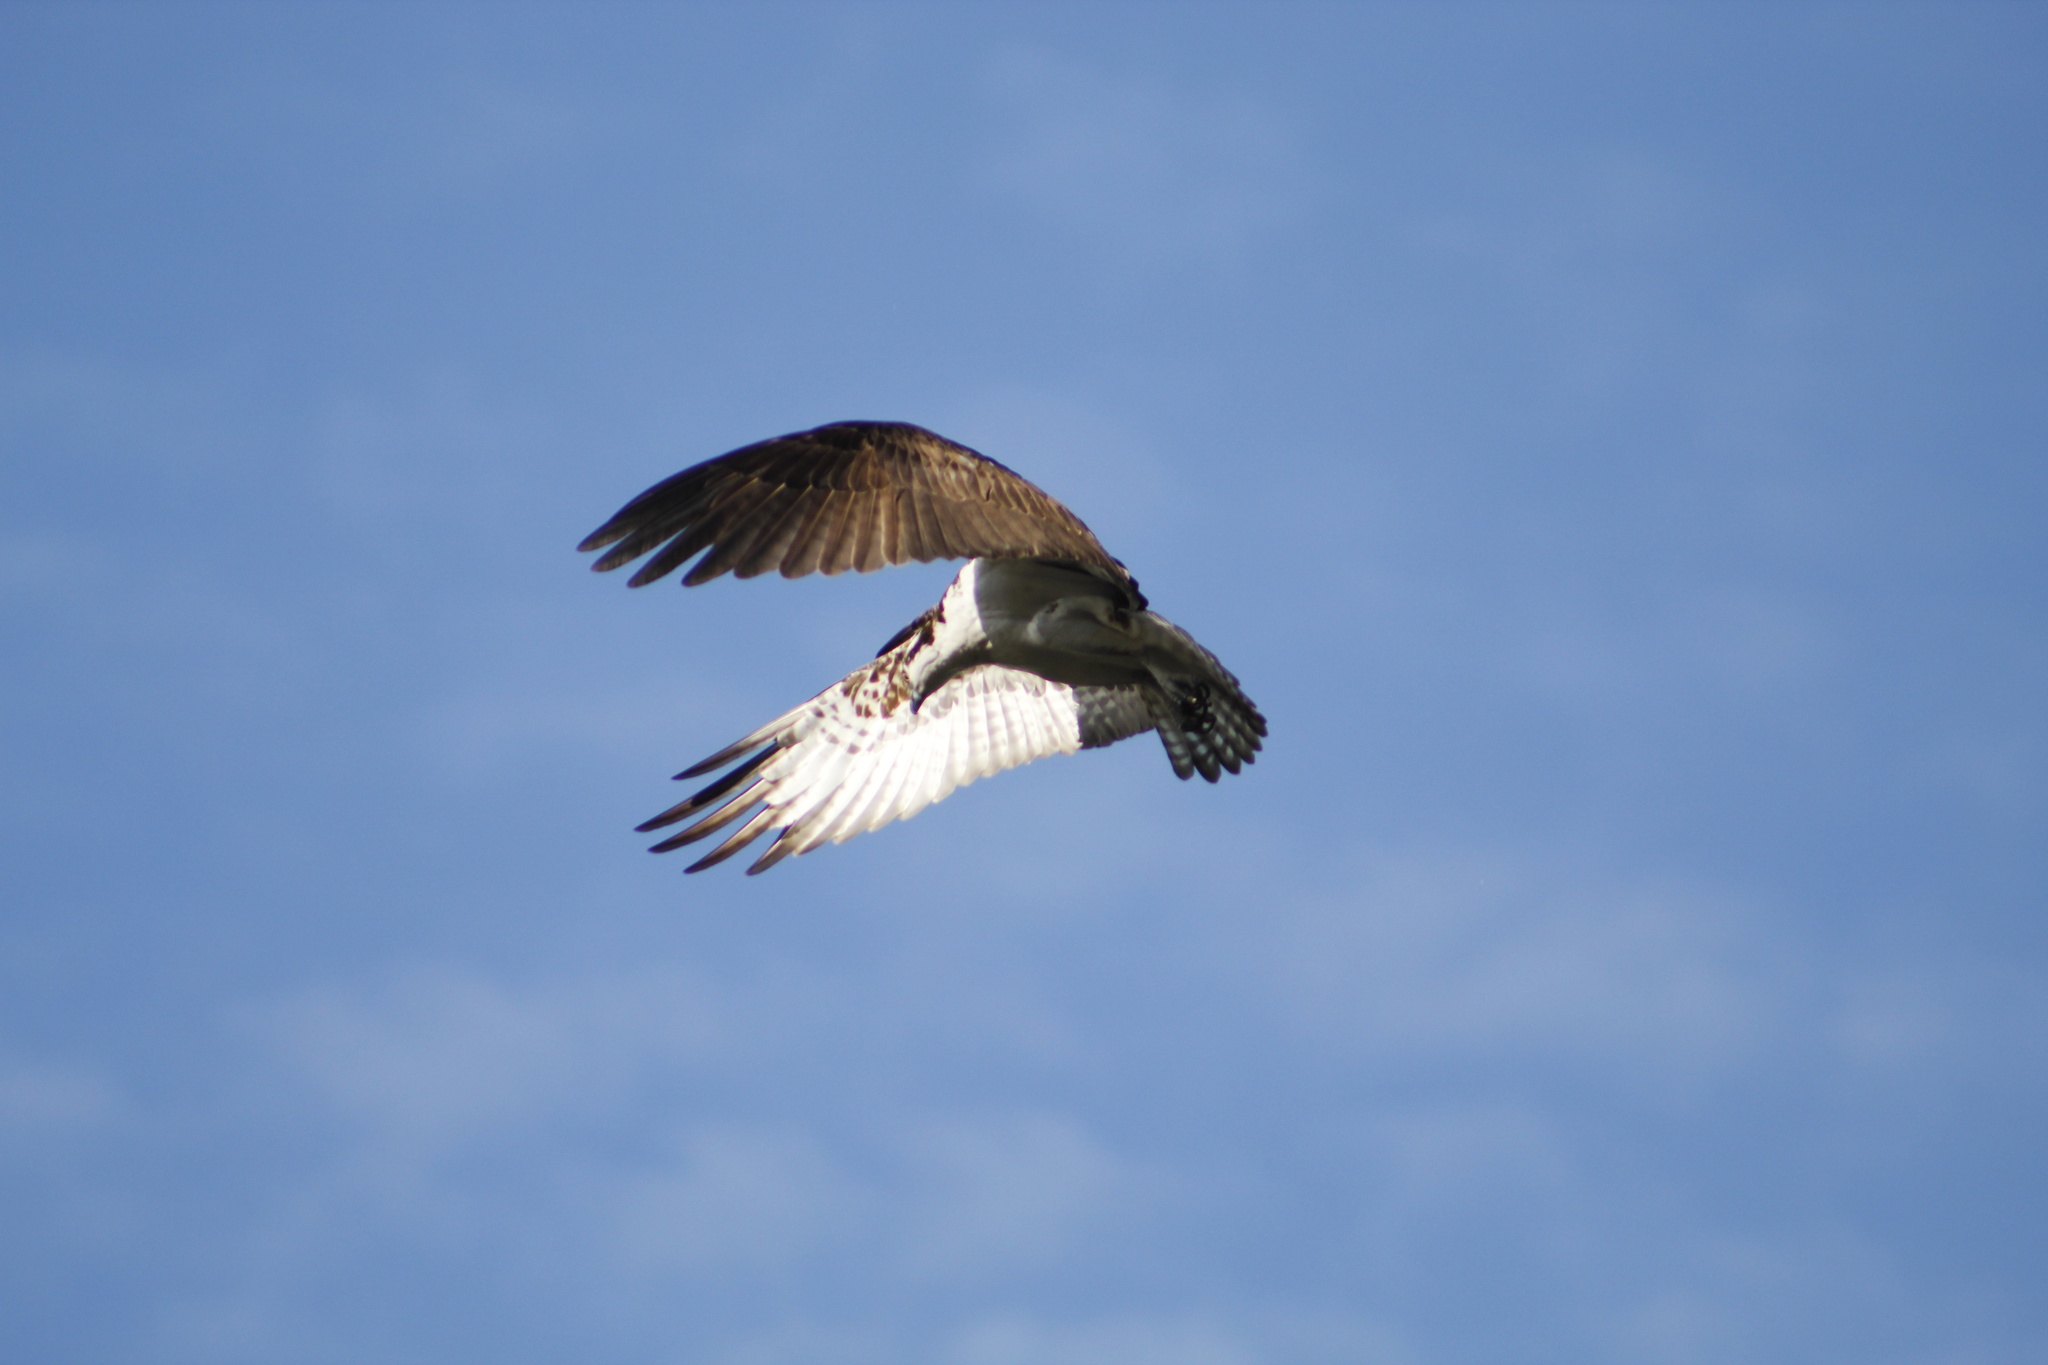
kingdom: Animalia
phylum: Chordata
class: Aves
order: Accipitriformes
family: Pandionidae
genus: Pandion
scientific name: Pandion haliaetus
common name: Osprey
